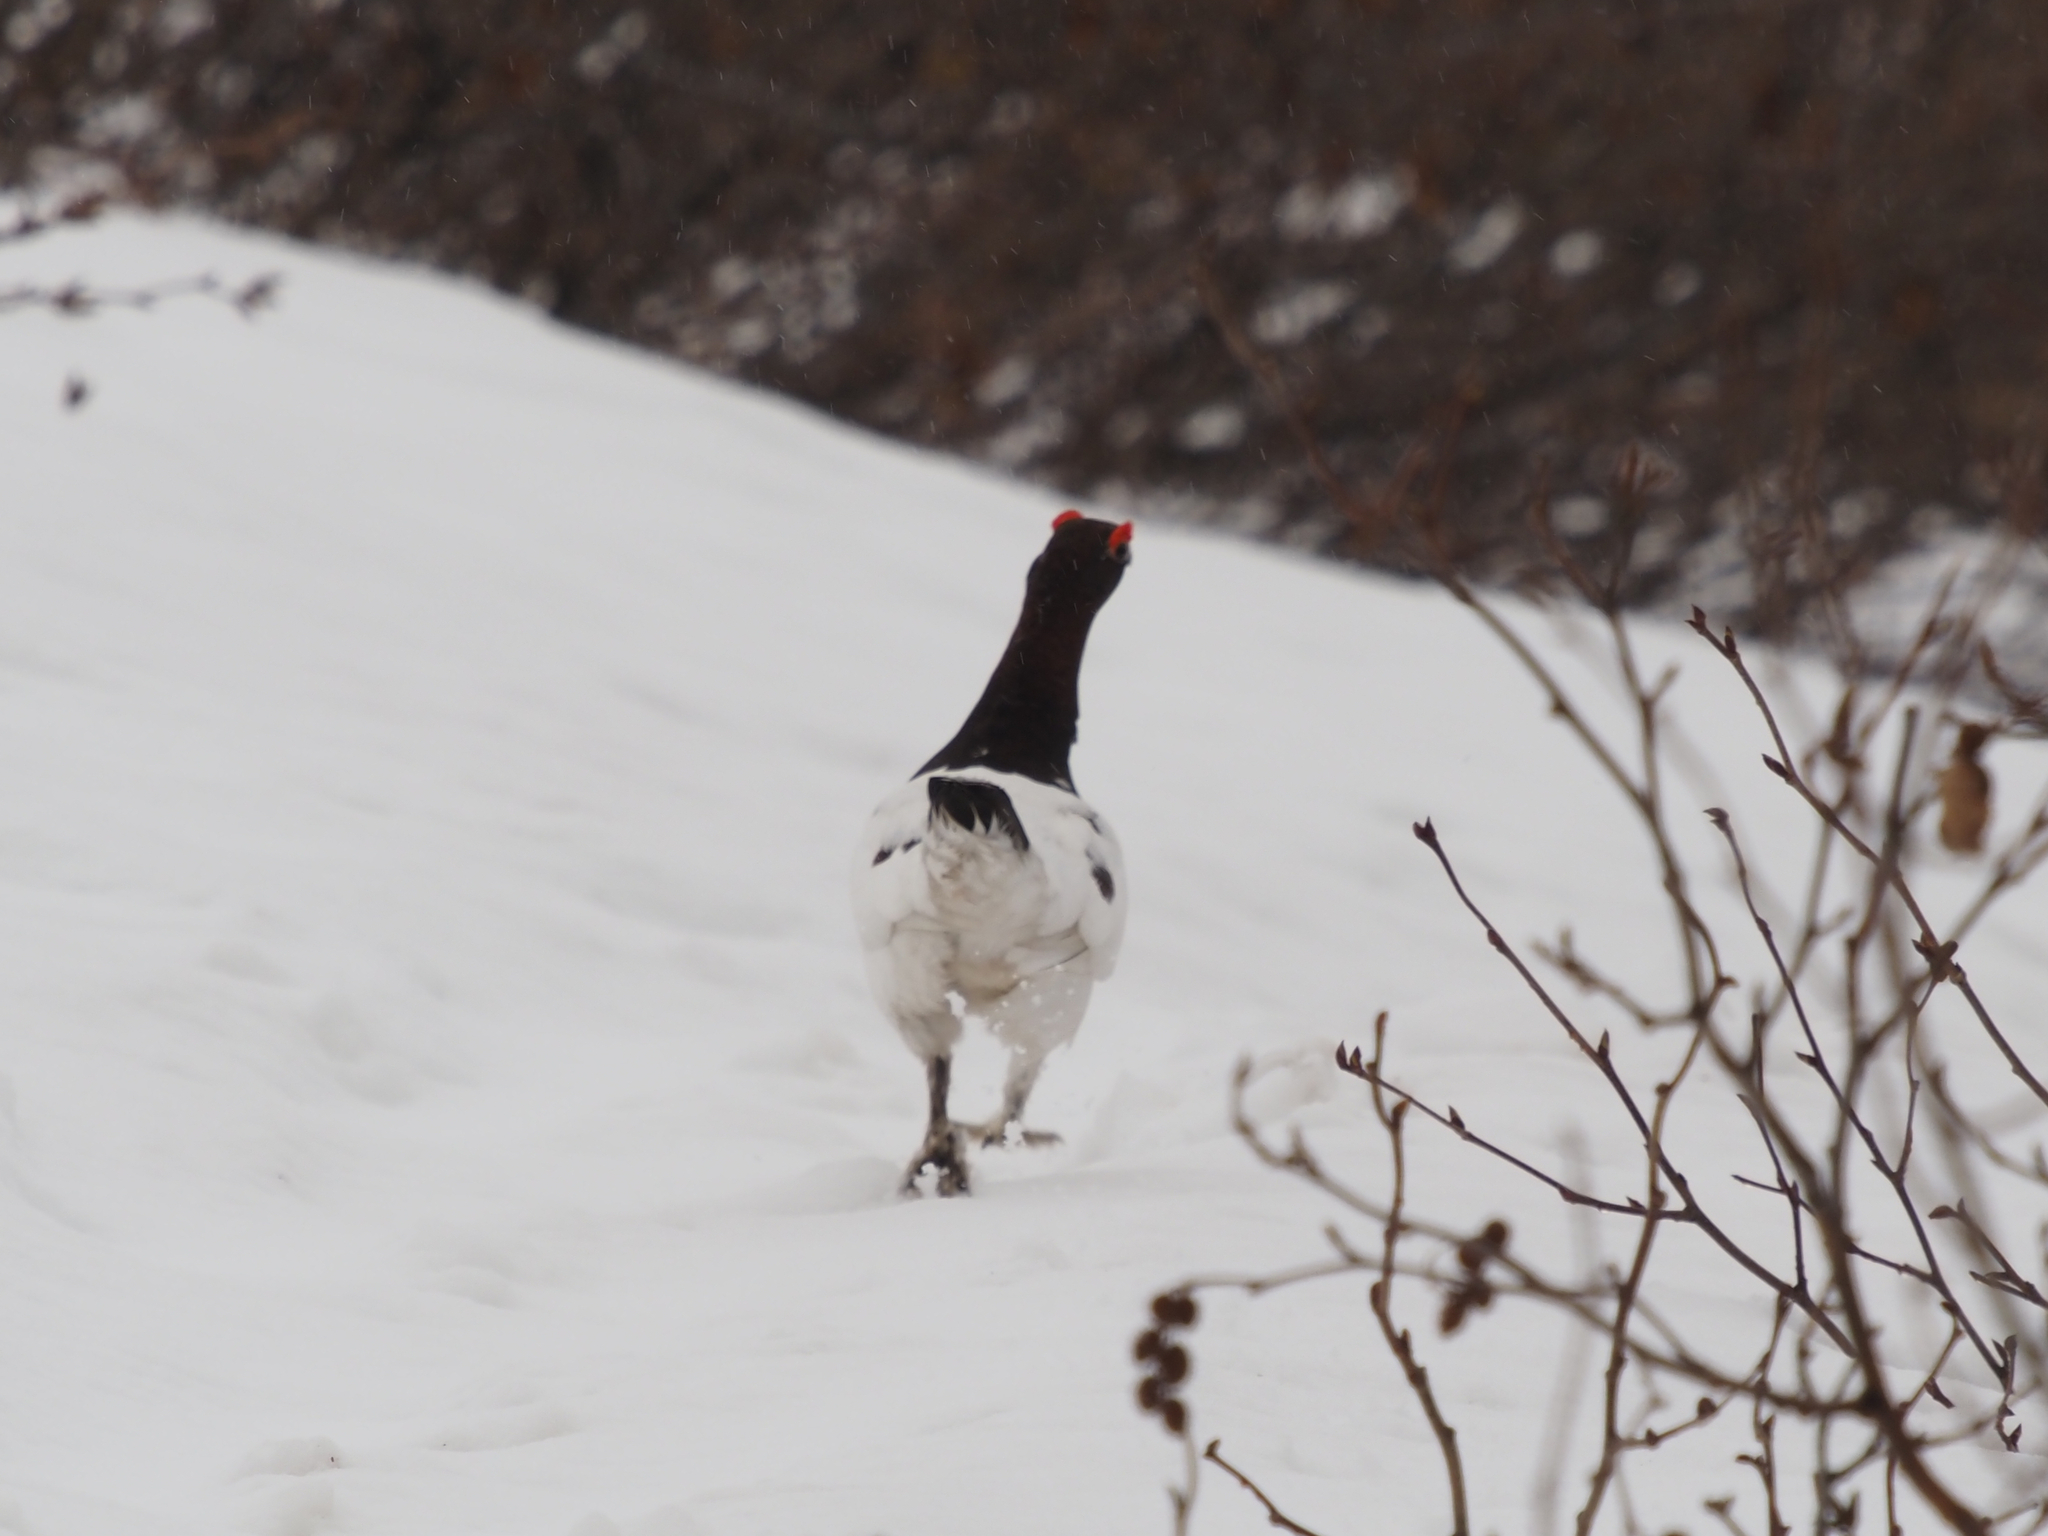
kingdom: Animalia
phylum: Chordata
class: Aves
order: Galliformes
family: Phasianidae
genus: Lagopus
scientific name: Lagopus lagopus
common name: Willow ptarmigan
